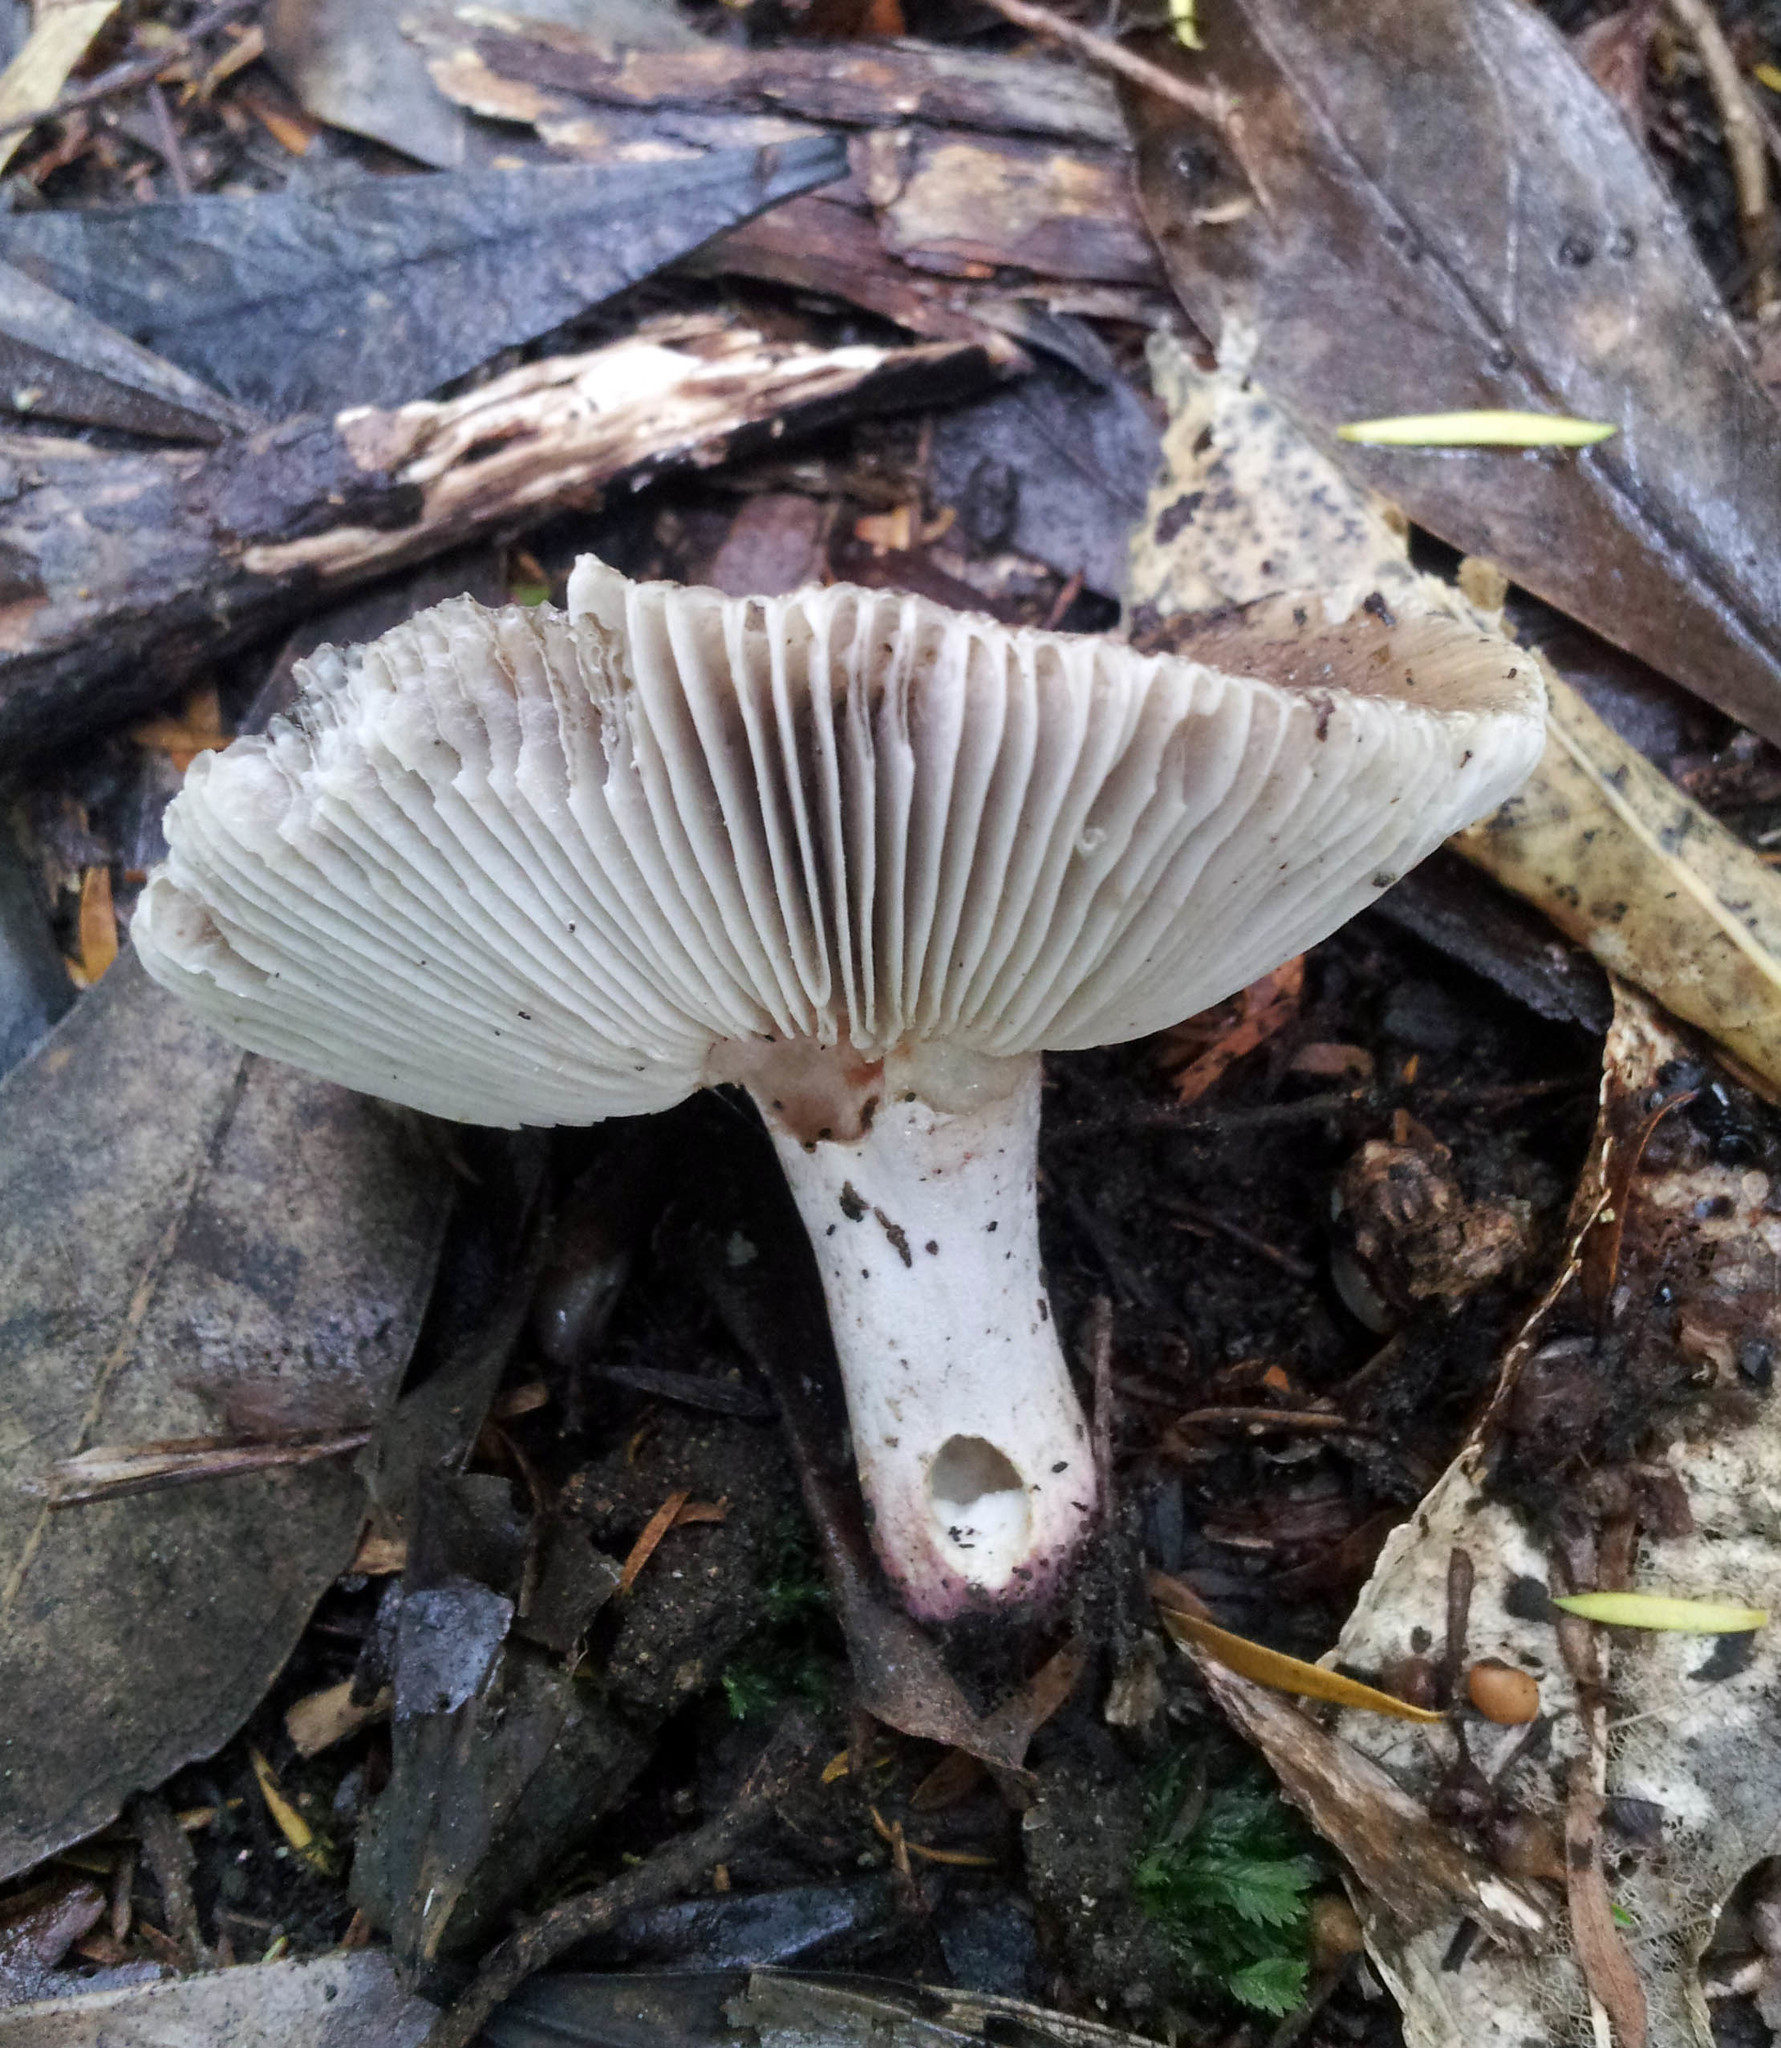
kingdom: Fungi
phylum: Basidiomycota
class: Agaricomycetes
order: Russulales
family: Russulaceae
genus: Russula
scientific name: Russula vinaceocuticulata
